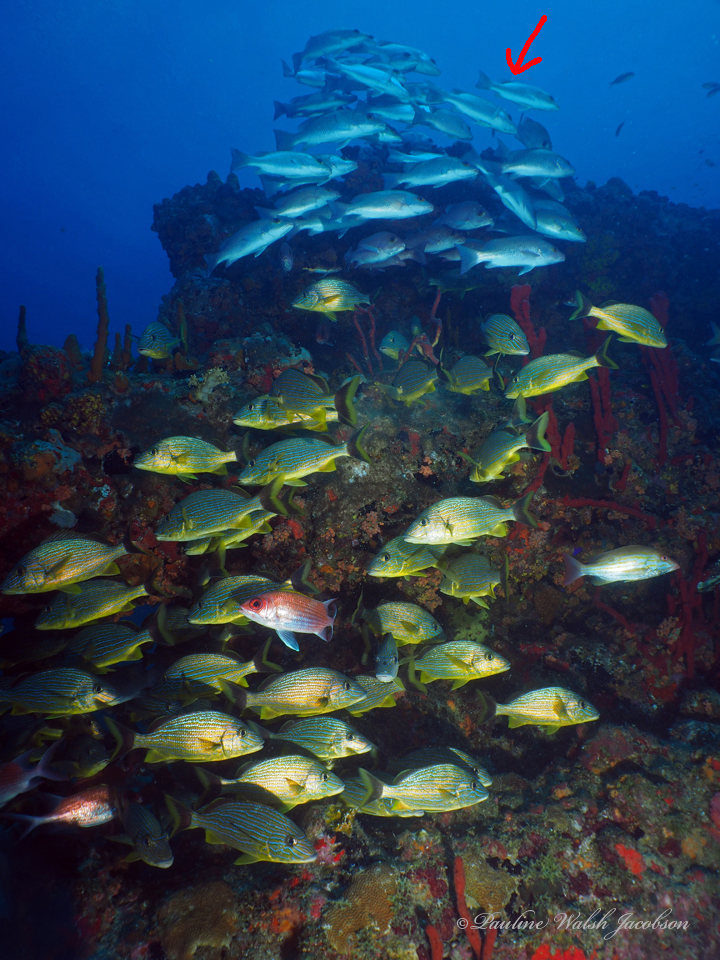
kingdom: Animalia
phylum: Chordata
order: Perciformes
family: Lutjanidae
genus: Lutjanus
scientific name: Lutjanus griseus
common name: Gray snapper
